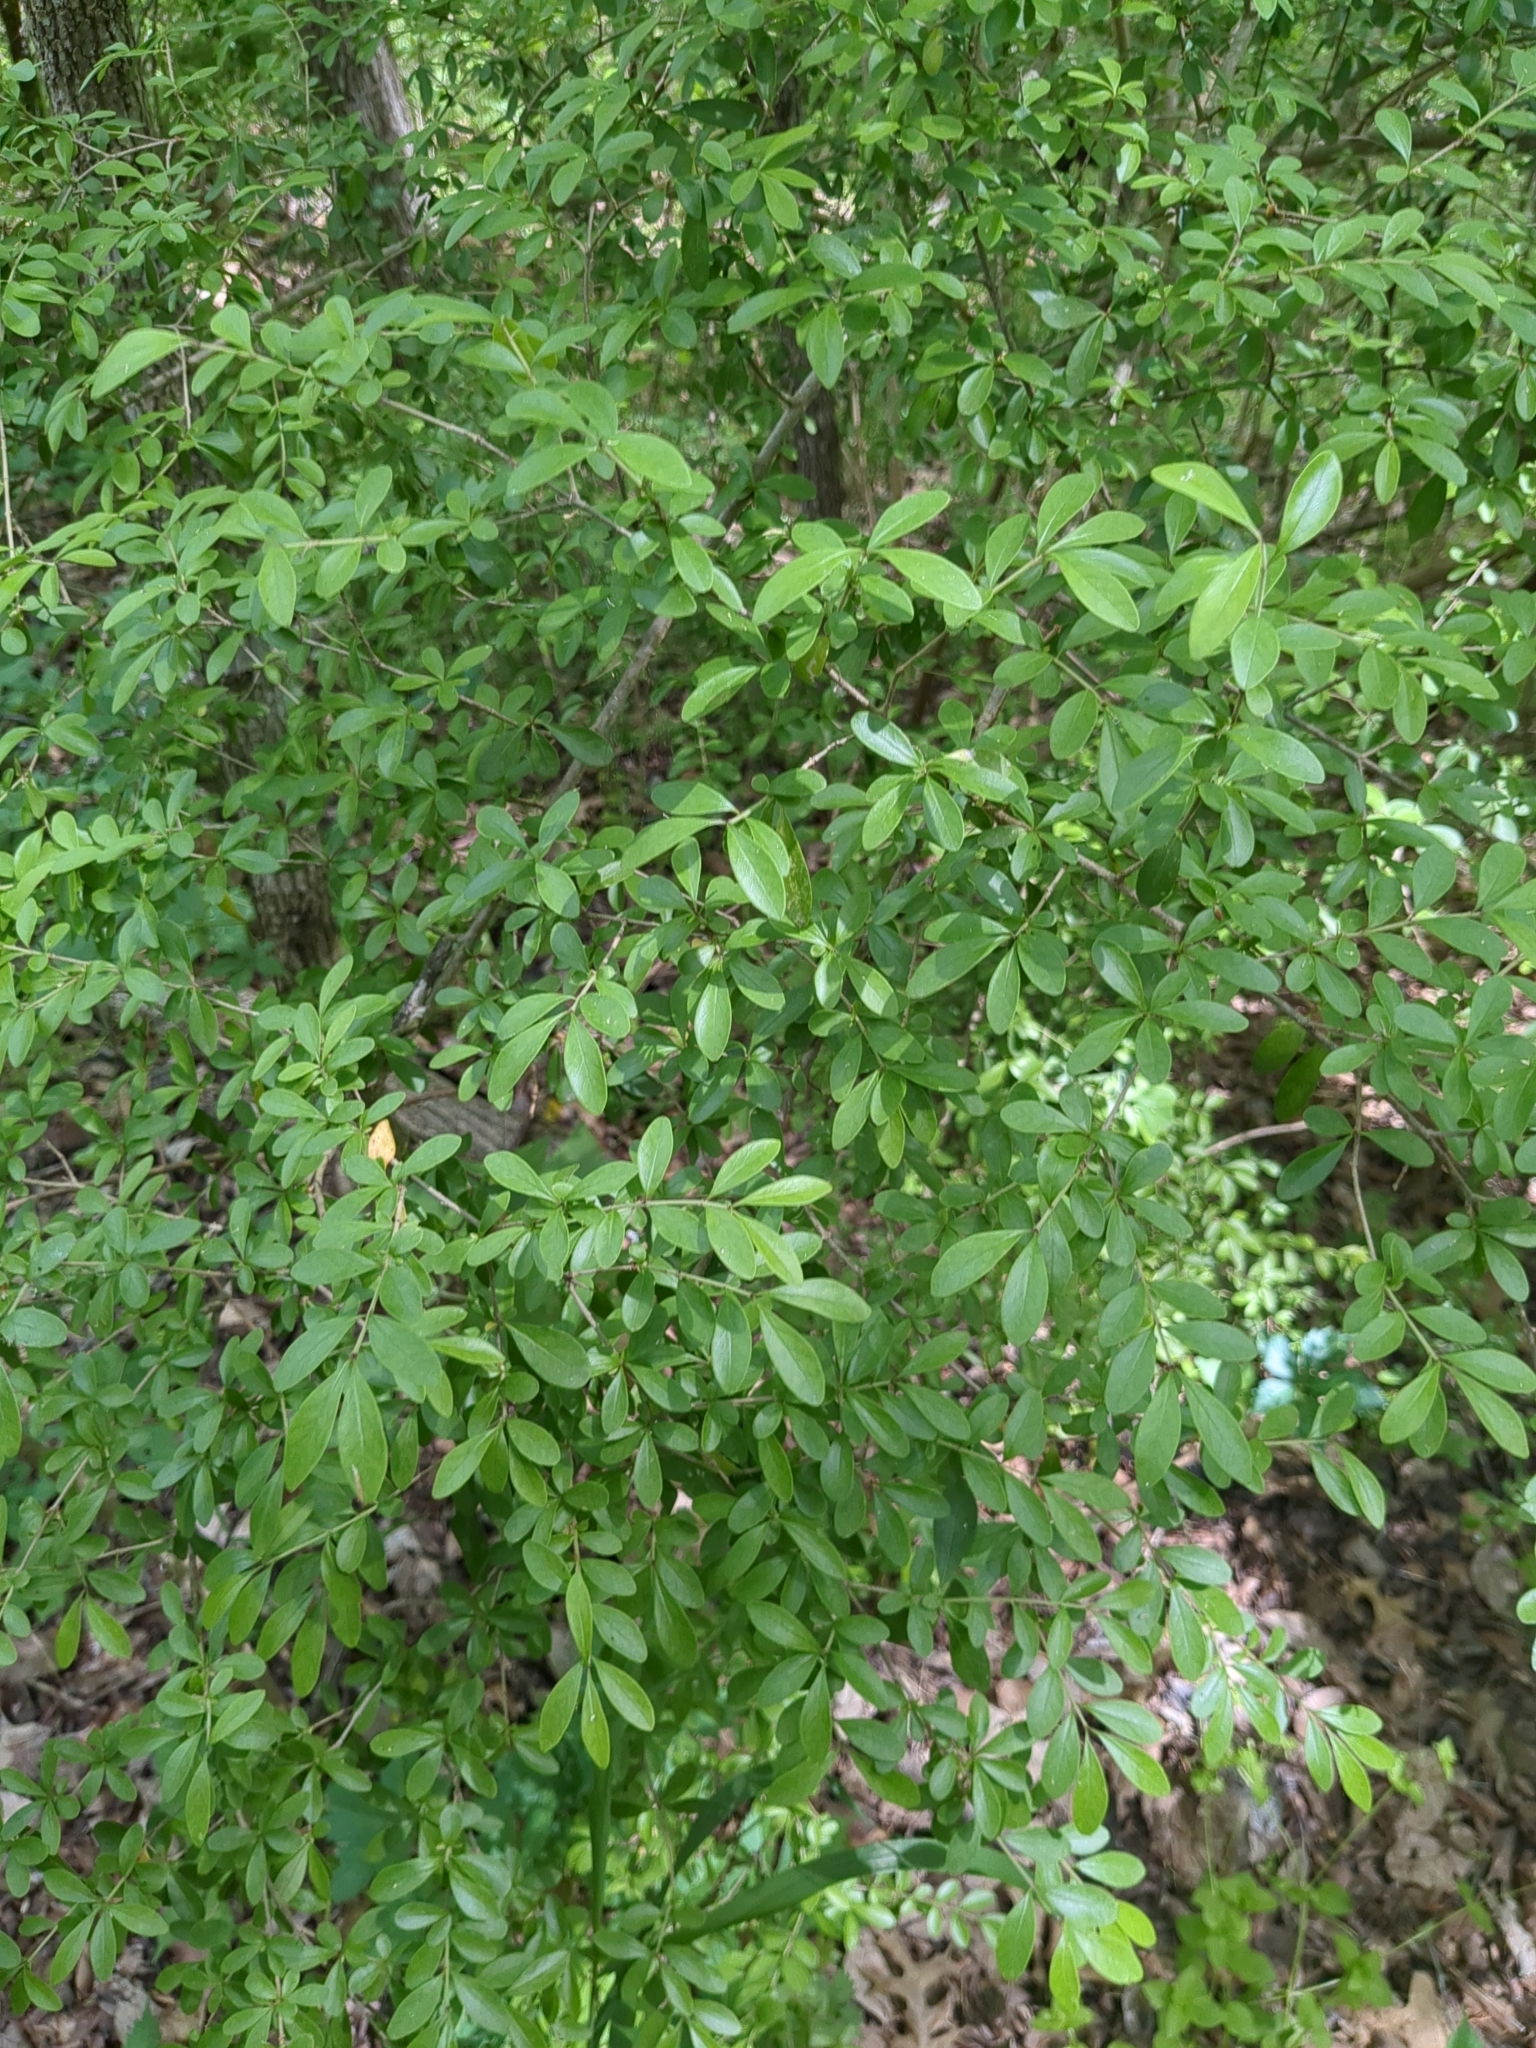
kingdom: Plantae
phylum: Tracheophyta
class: Magnoliopsida
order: Lamiales
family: Oleaceae
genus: Ligustrum
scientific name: Ligustrum quihoui
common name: Waxyleaf privet
